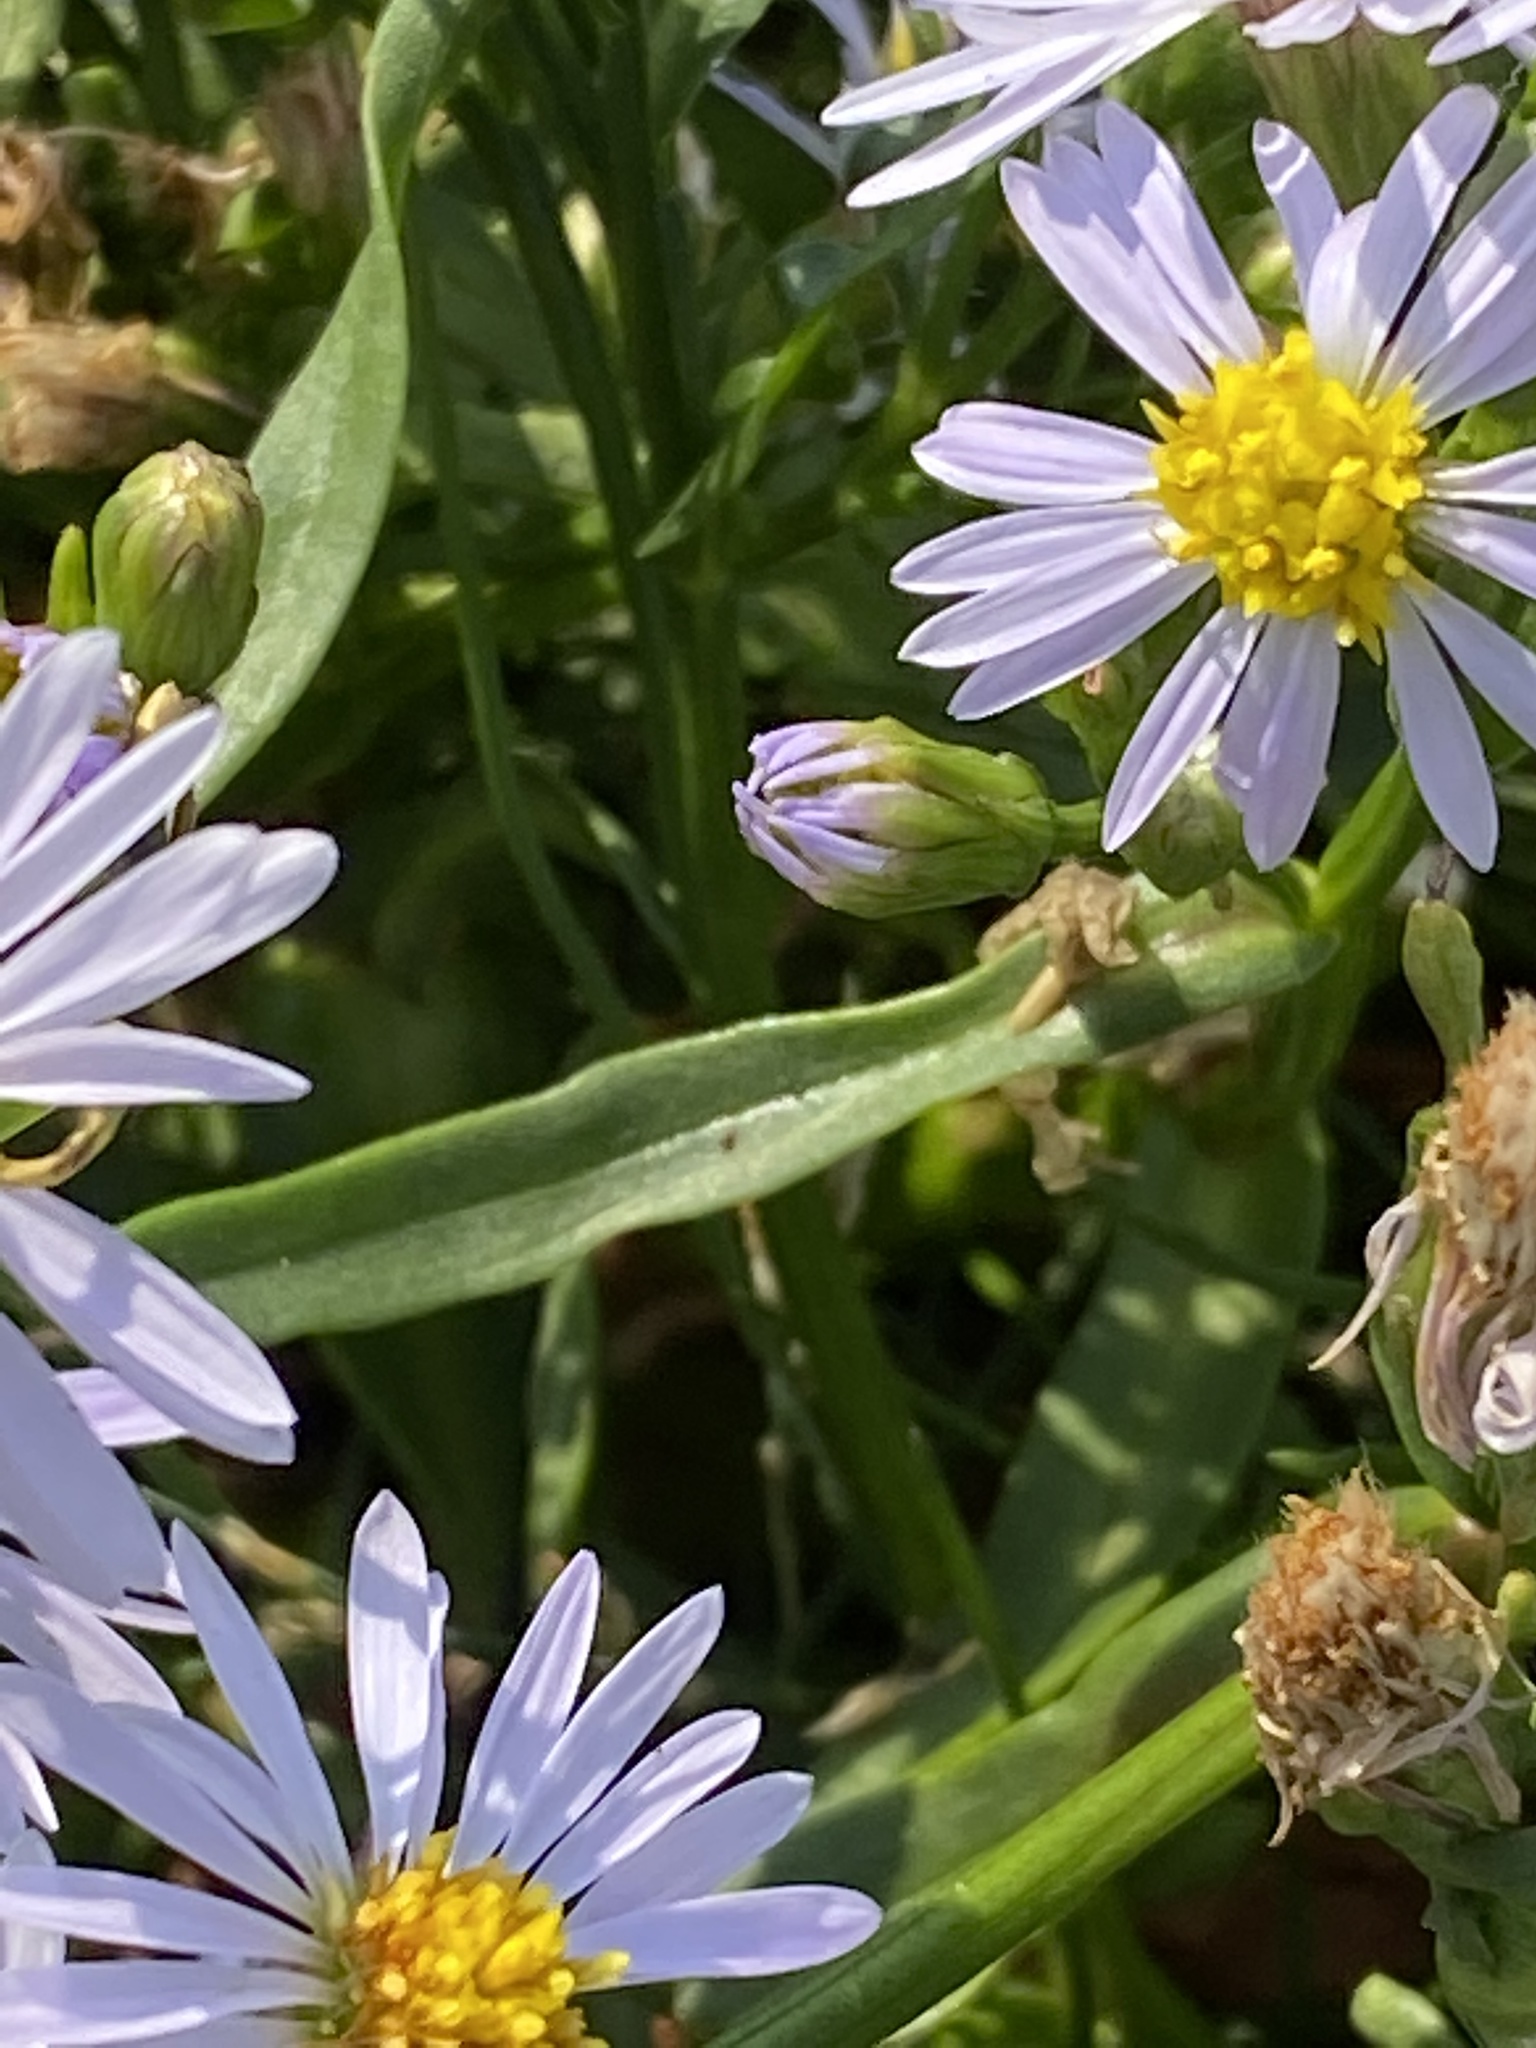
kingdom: Plantae
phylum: Tracheophyta
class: Magnoliopsida
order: Asterales
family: Asteraceae
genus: Tripolium
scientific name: Tripolium pannonicum
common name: Sea aster
